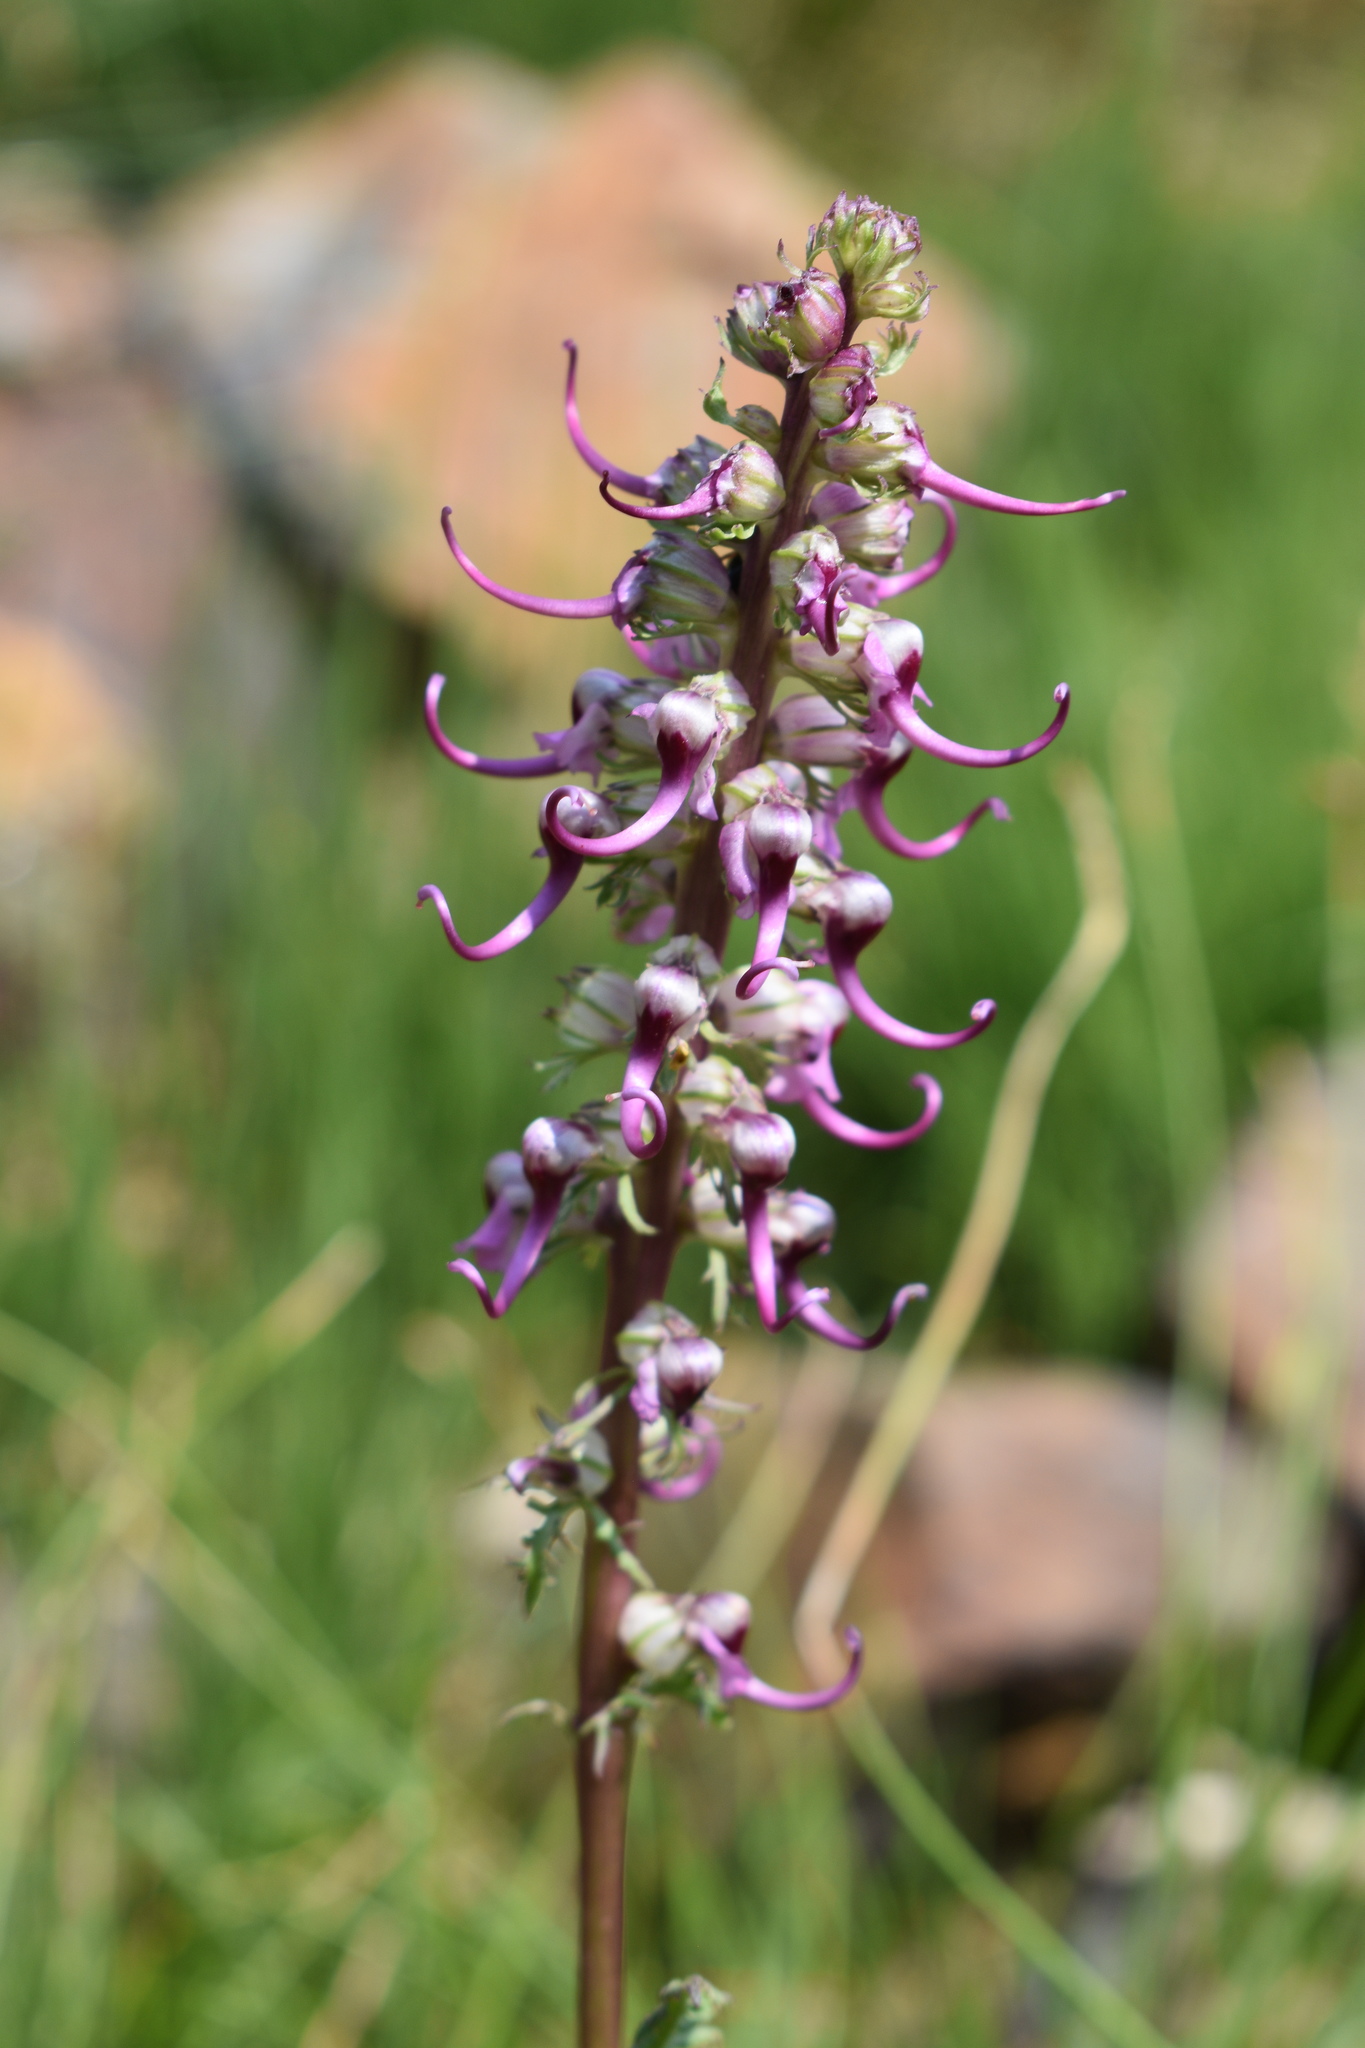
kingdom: Plantae
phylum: Tracheophyta
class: Magnoliopsida
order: Lamiales
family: Orobanchaceae
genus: Pedicularis
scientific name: Pedicularis groenlandica
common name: Elephant's-head
